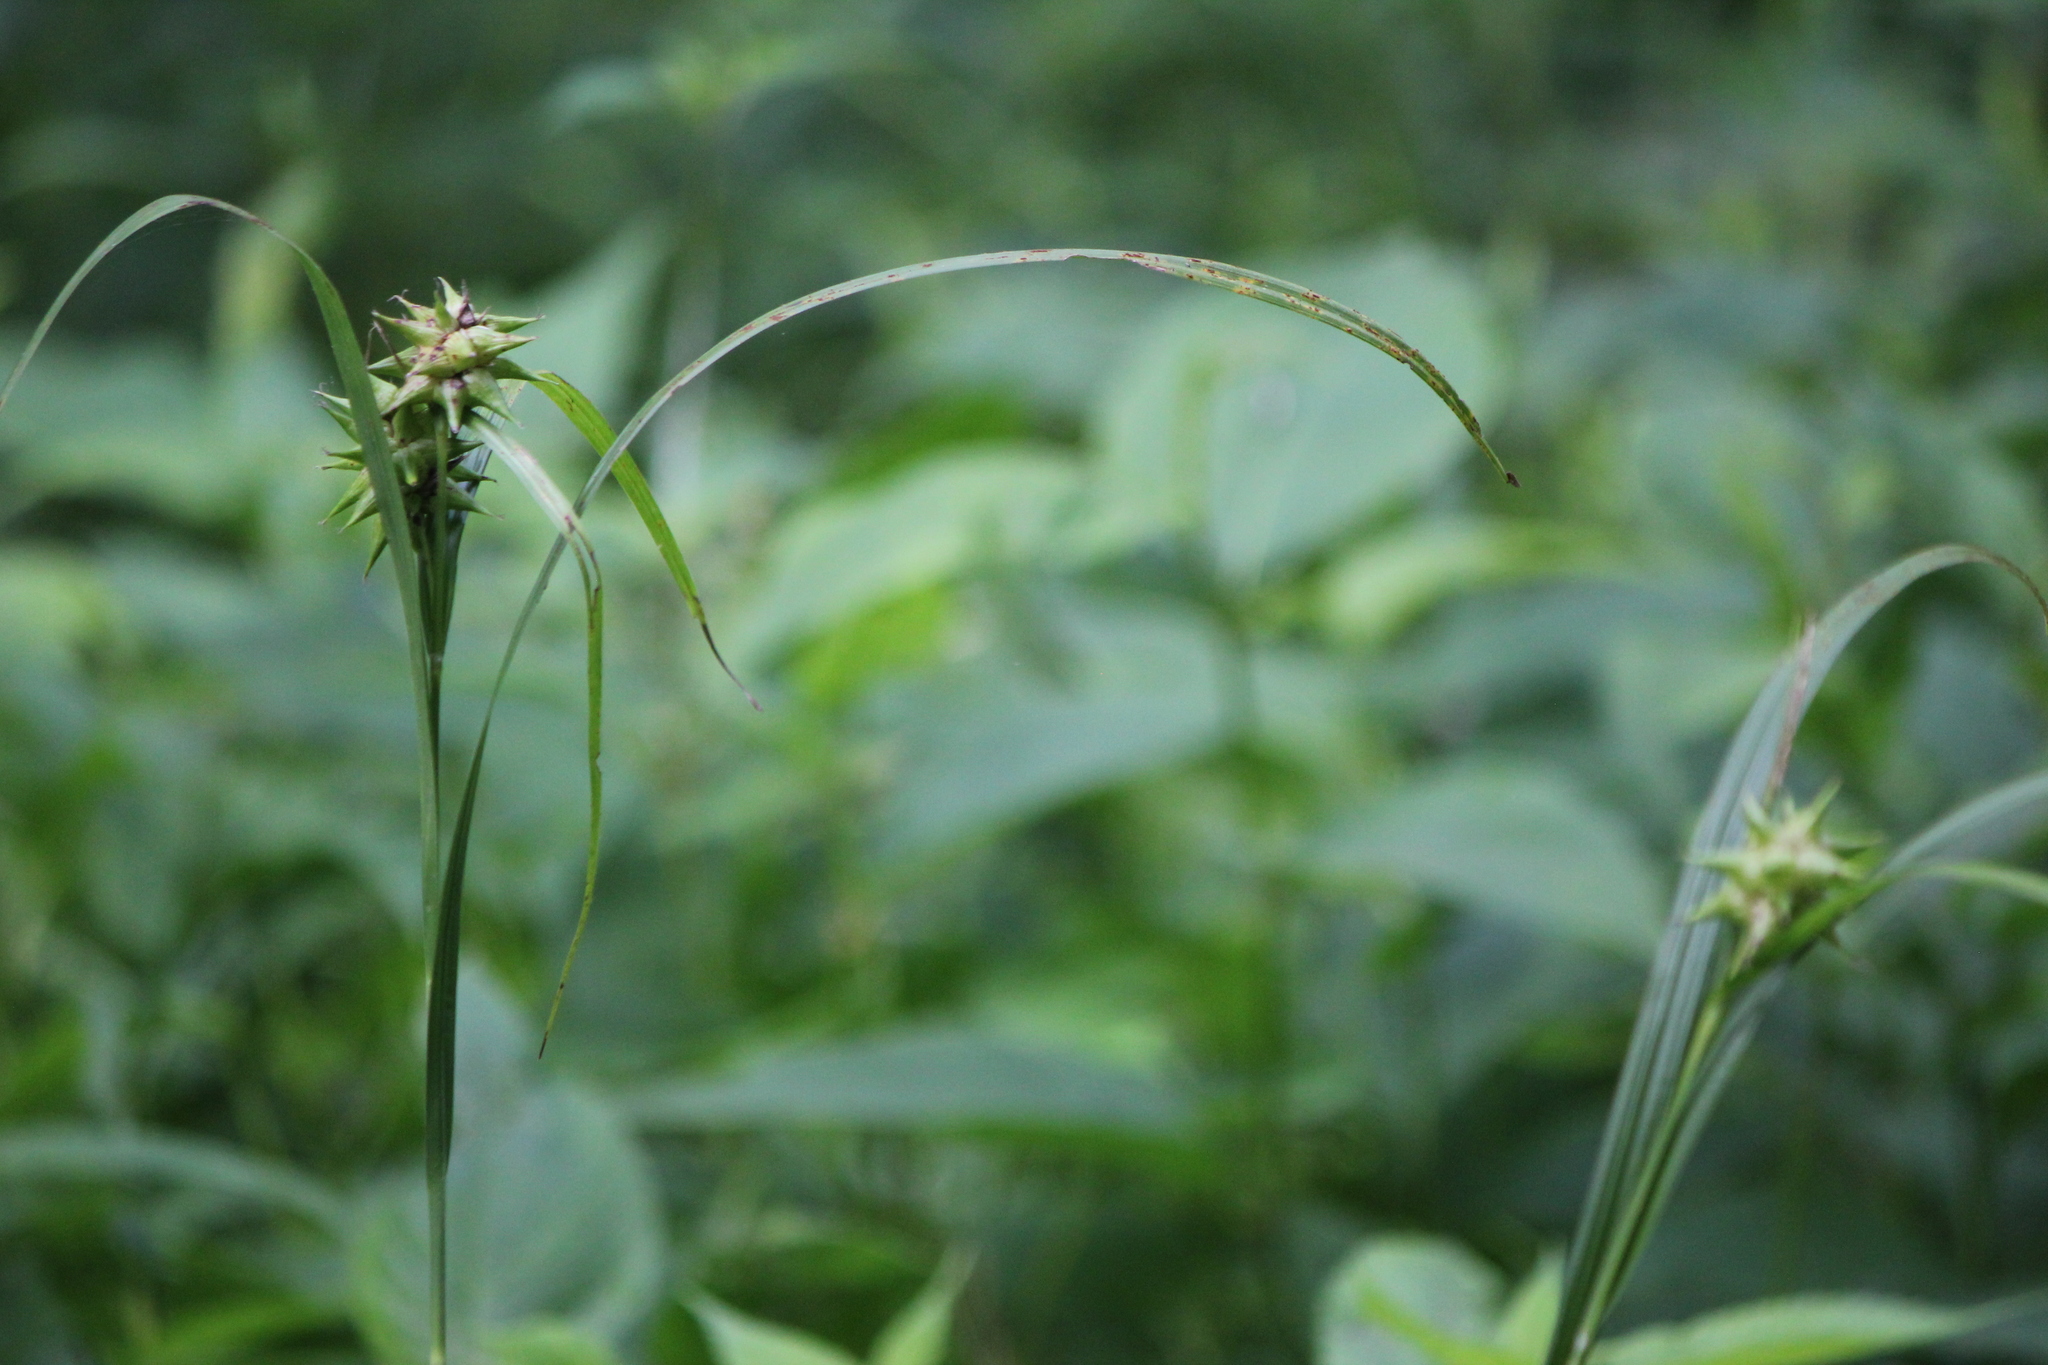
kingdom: Plantae
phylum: Tracheophyta
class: Liliopsida
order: Poales
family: Cyperaceae
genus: Carex
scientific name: Carex grayi
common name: Asa gray's sedge
